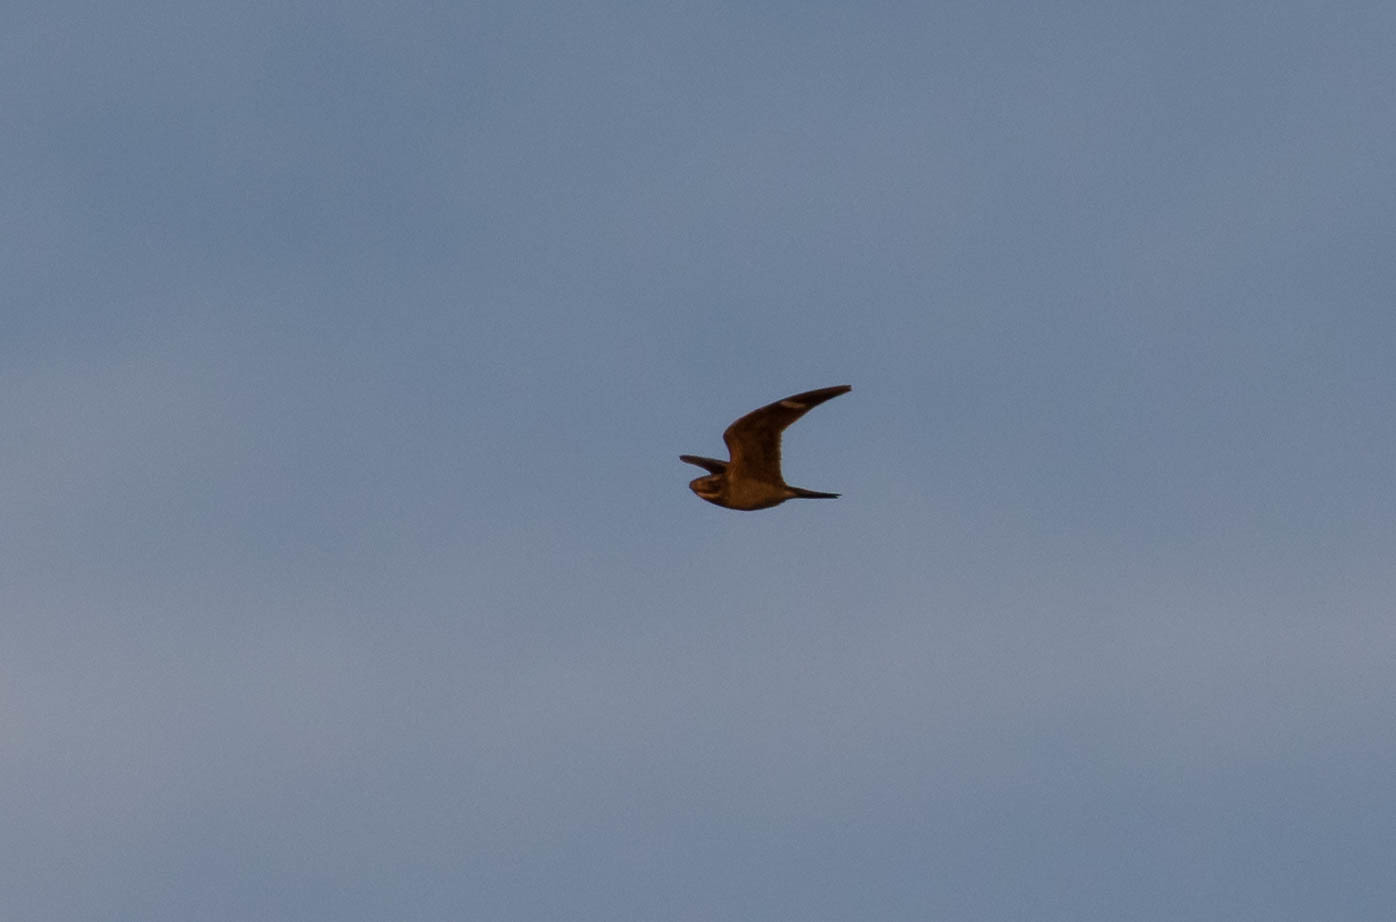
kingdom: Animalia
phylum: Chordata
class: Aves
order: Caprimulgiformes
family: Caprimulgidae
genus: Chordeiles
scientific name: Chordeiles minor
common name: Common nighthawk
